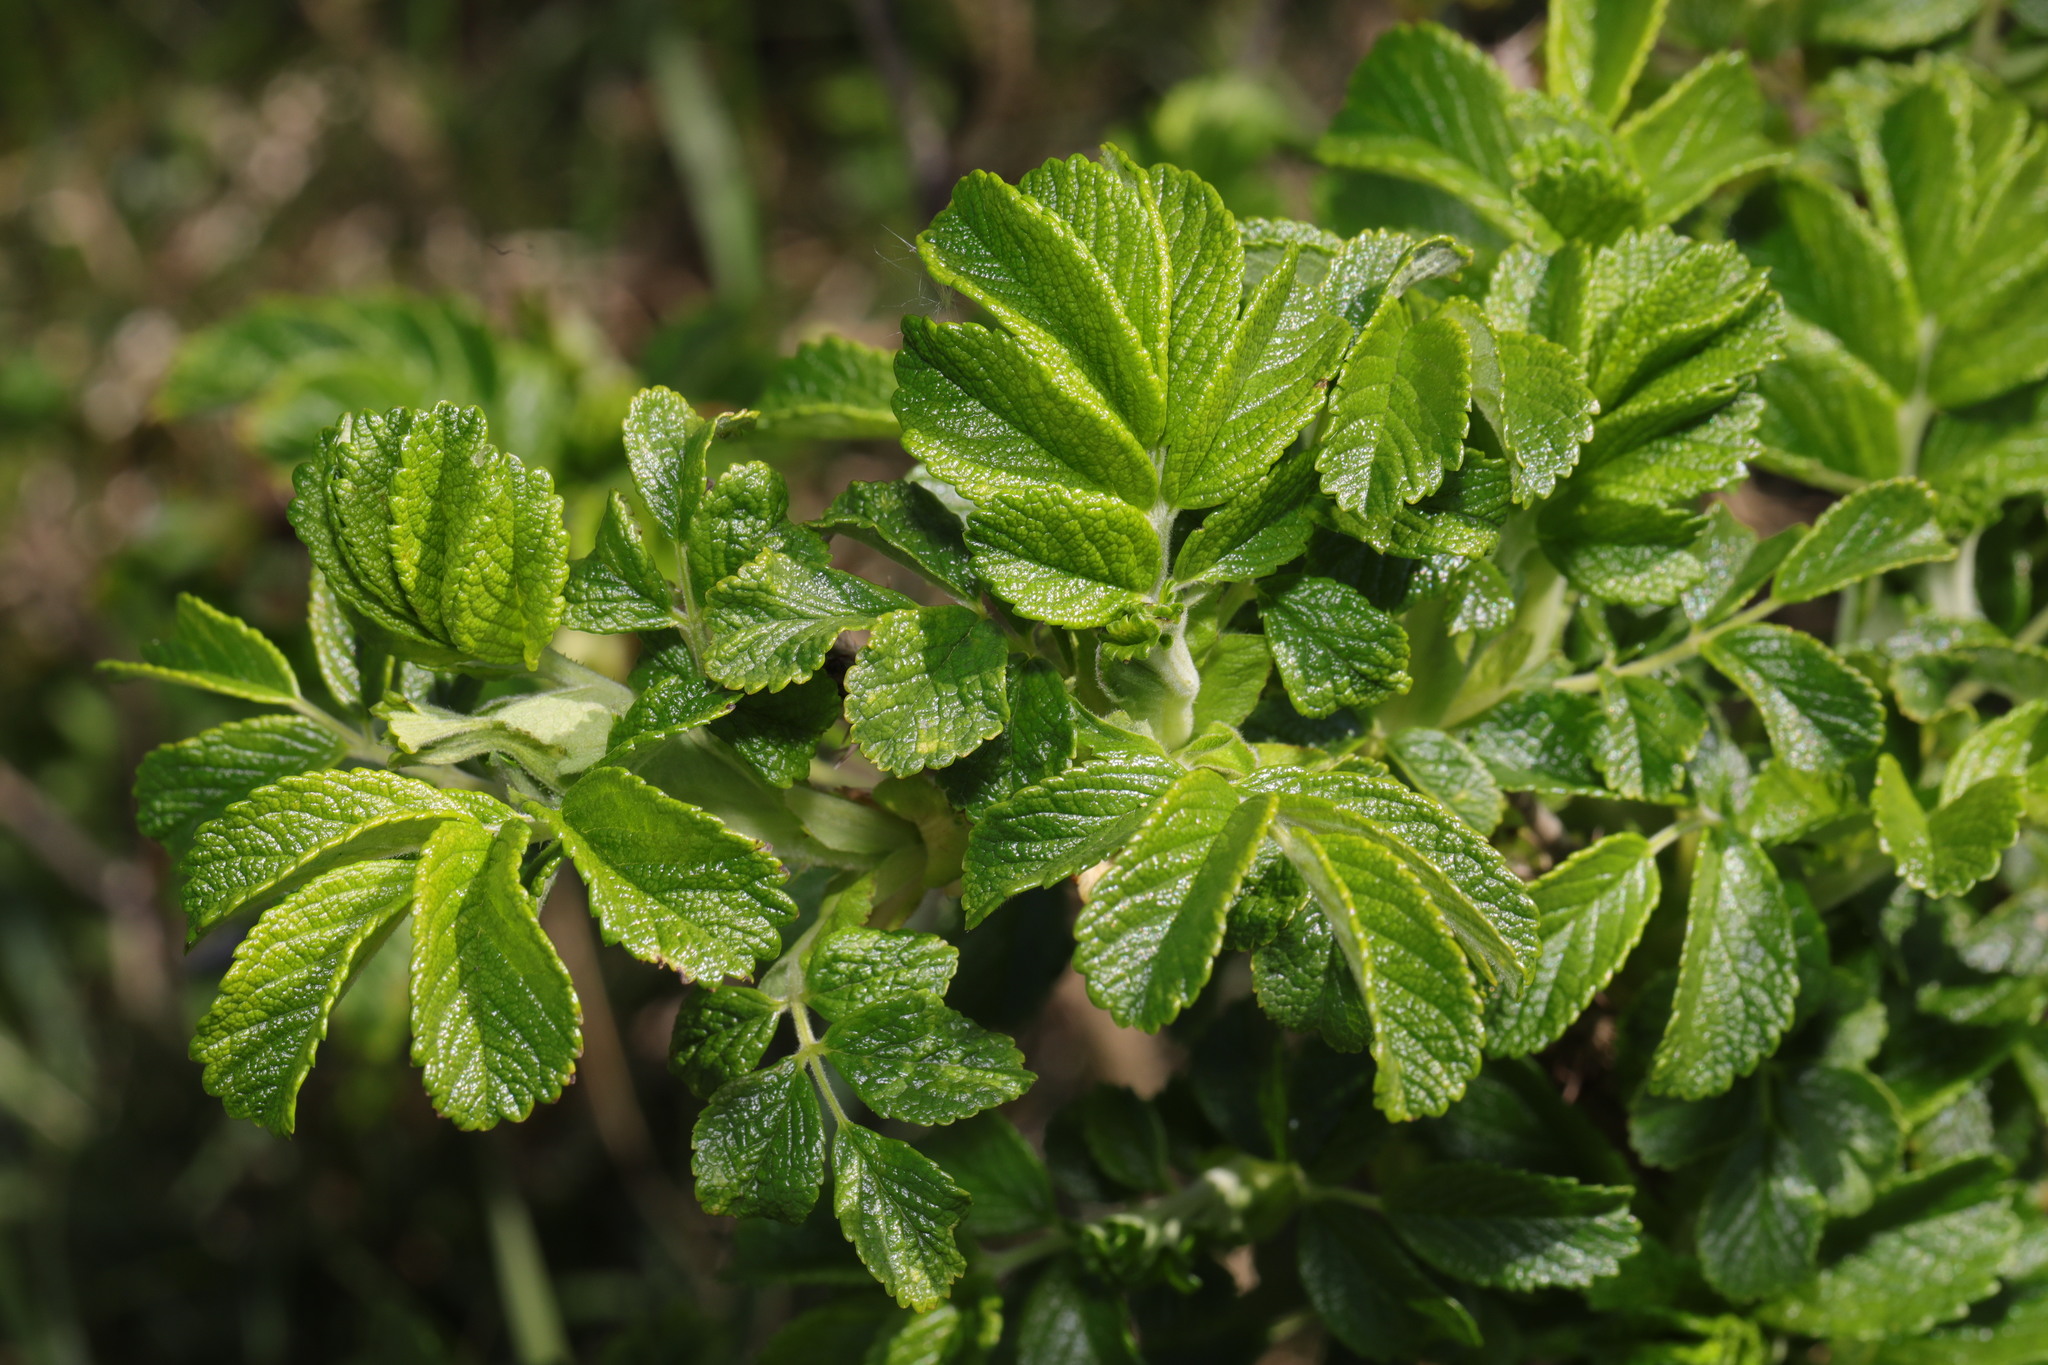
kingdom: Plantae
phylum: Tracheophyta
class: Magnoliopsida
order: Rosales
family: Rosaceae
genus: Rosa
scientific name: Rosa rugosa
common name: Japanese rose
